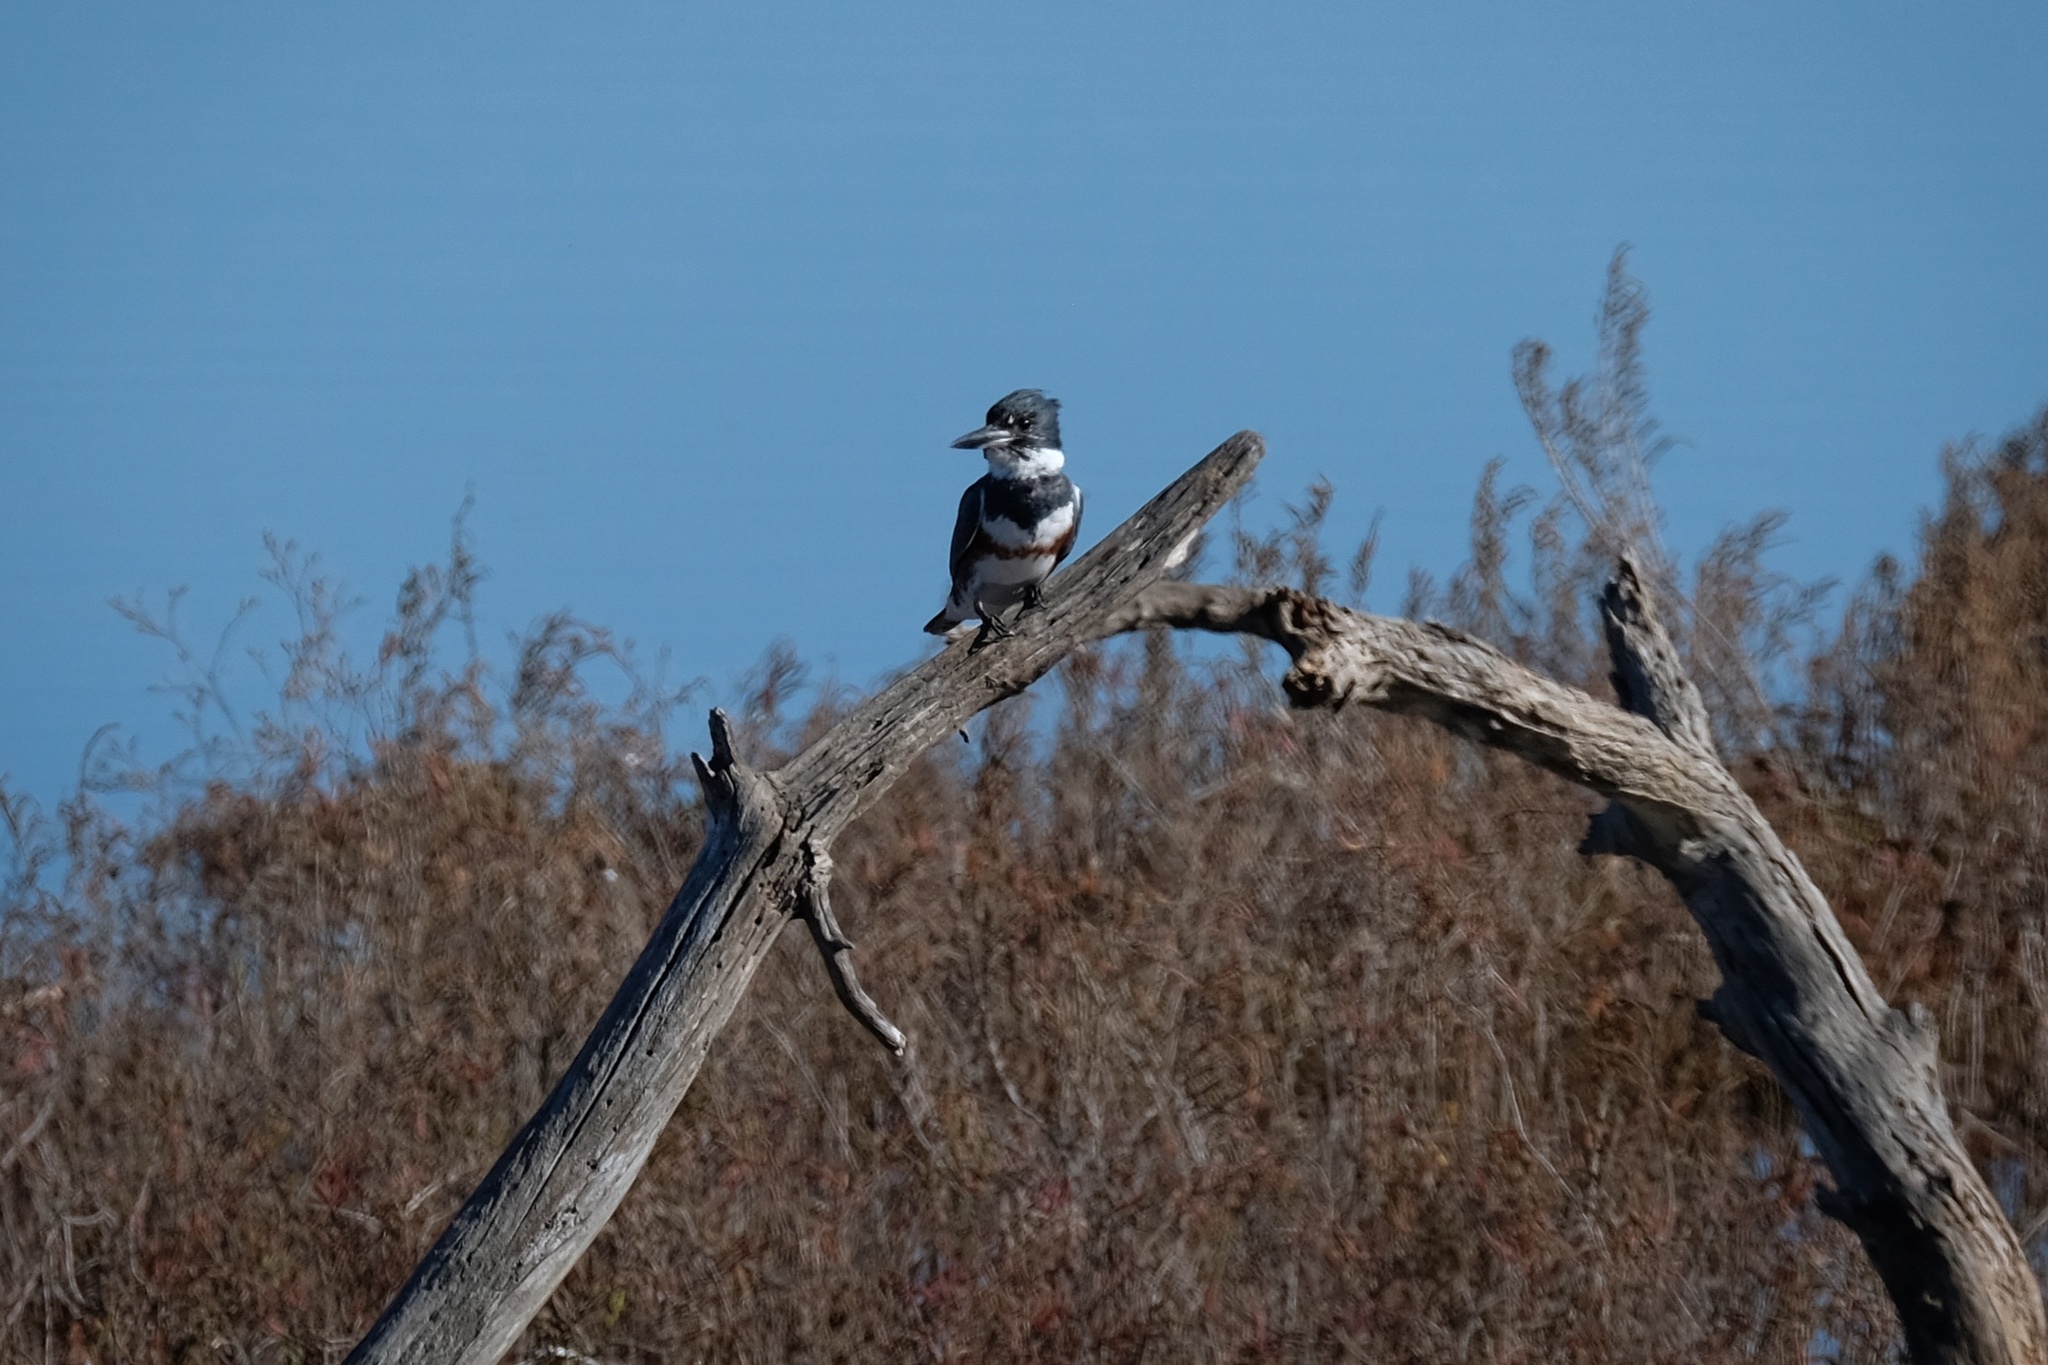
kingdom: Animalia
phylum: Chordata
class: Aves
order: Coraciiformes
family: Alcedinidae
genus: Megaceryle
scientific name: Megaceryle alcyon
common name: Belted kingfisher
